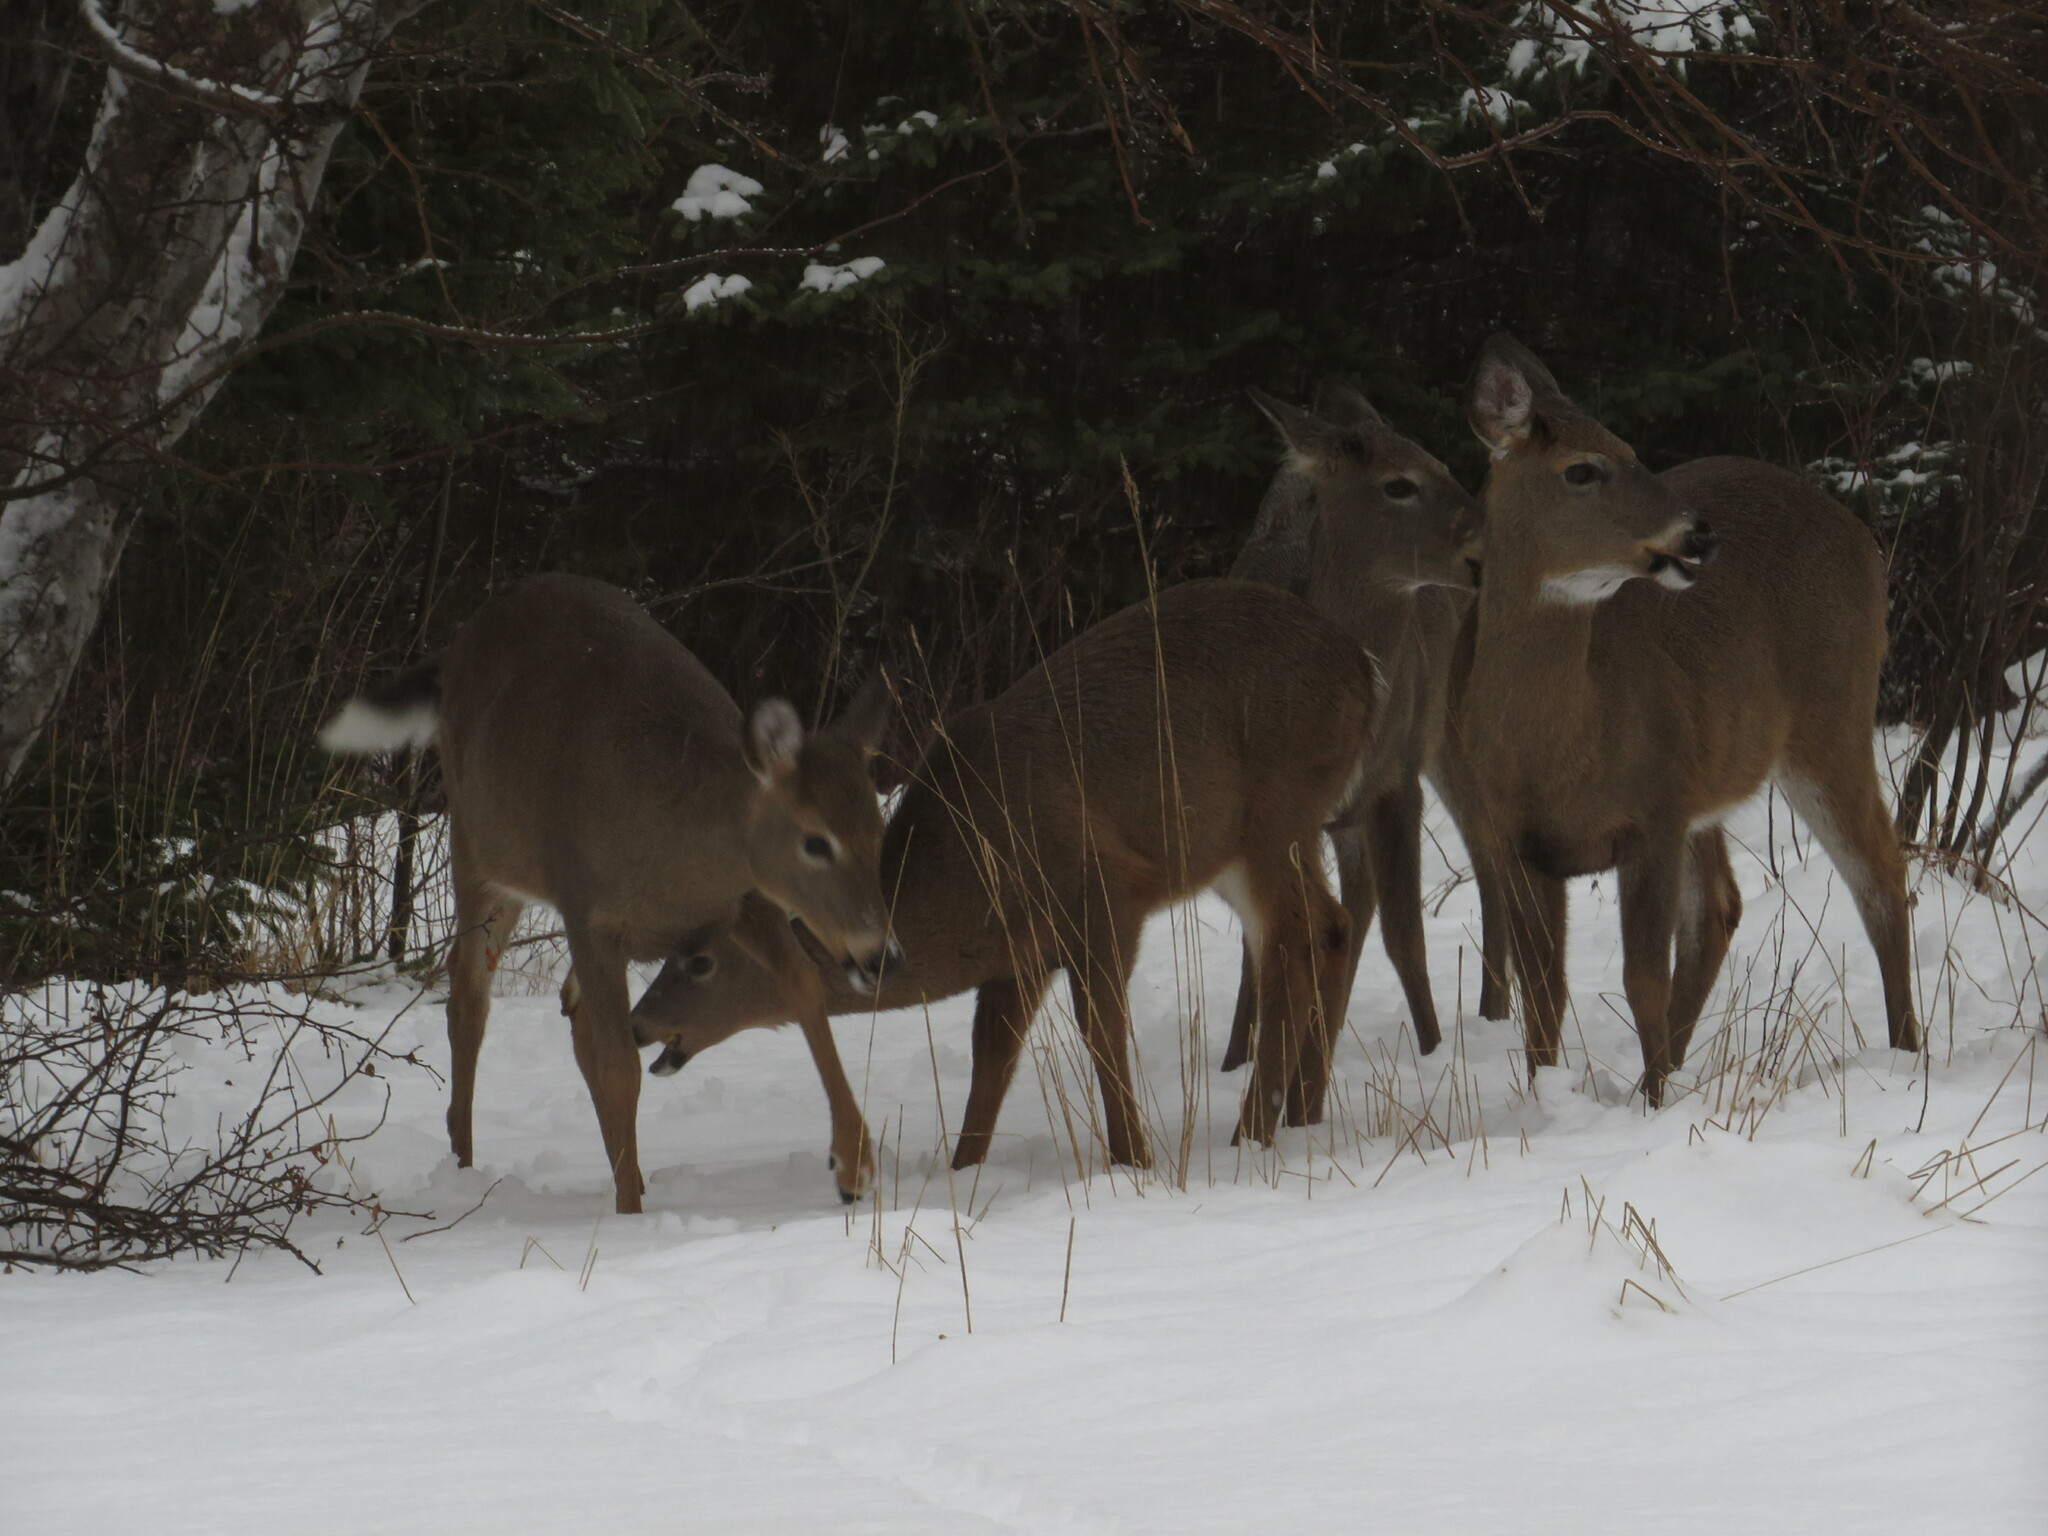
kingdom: Animalia
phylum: Chordata
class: Mammalia
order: Artiodactyla
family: Cervidae
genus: Odocoileus
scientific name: Odocoileus virginianus
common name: White-tailed deer
